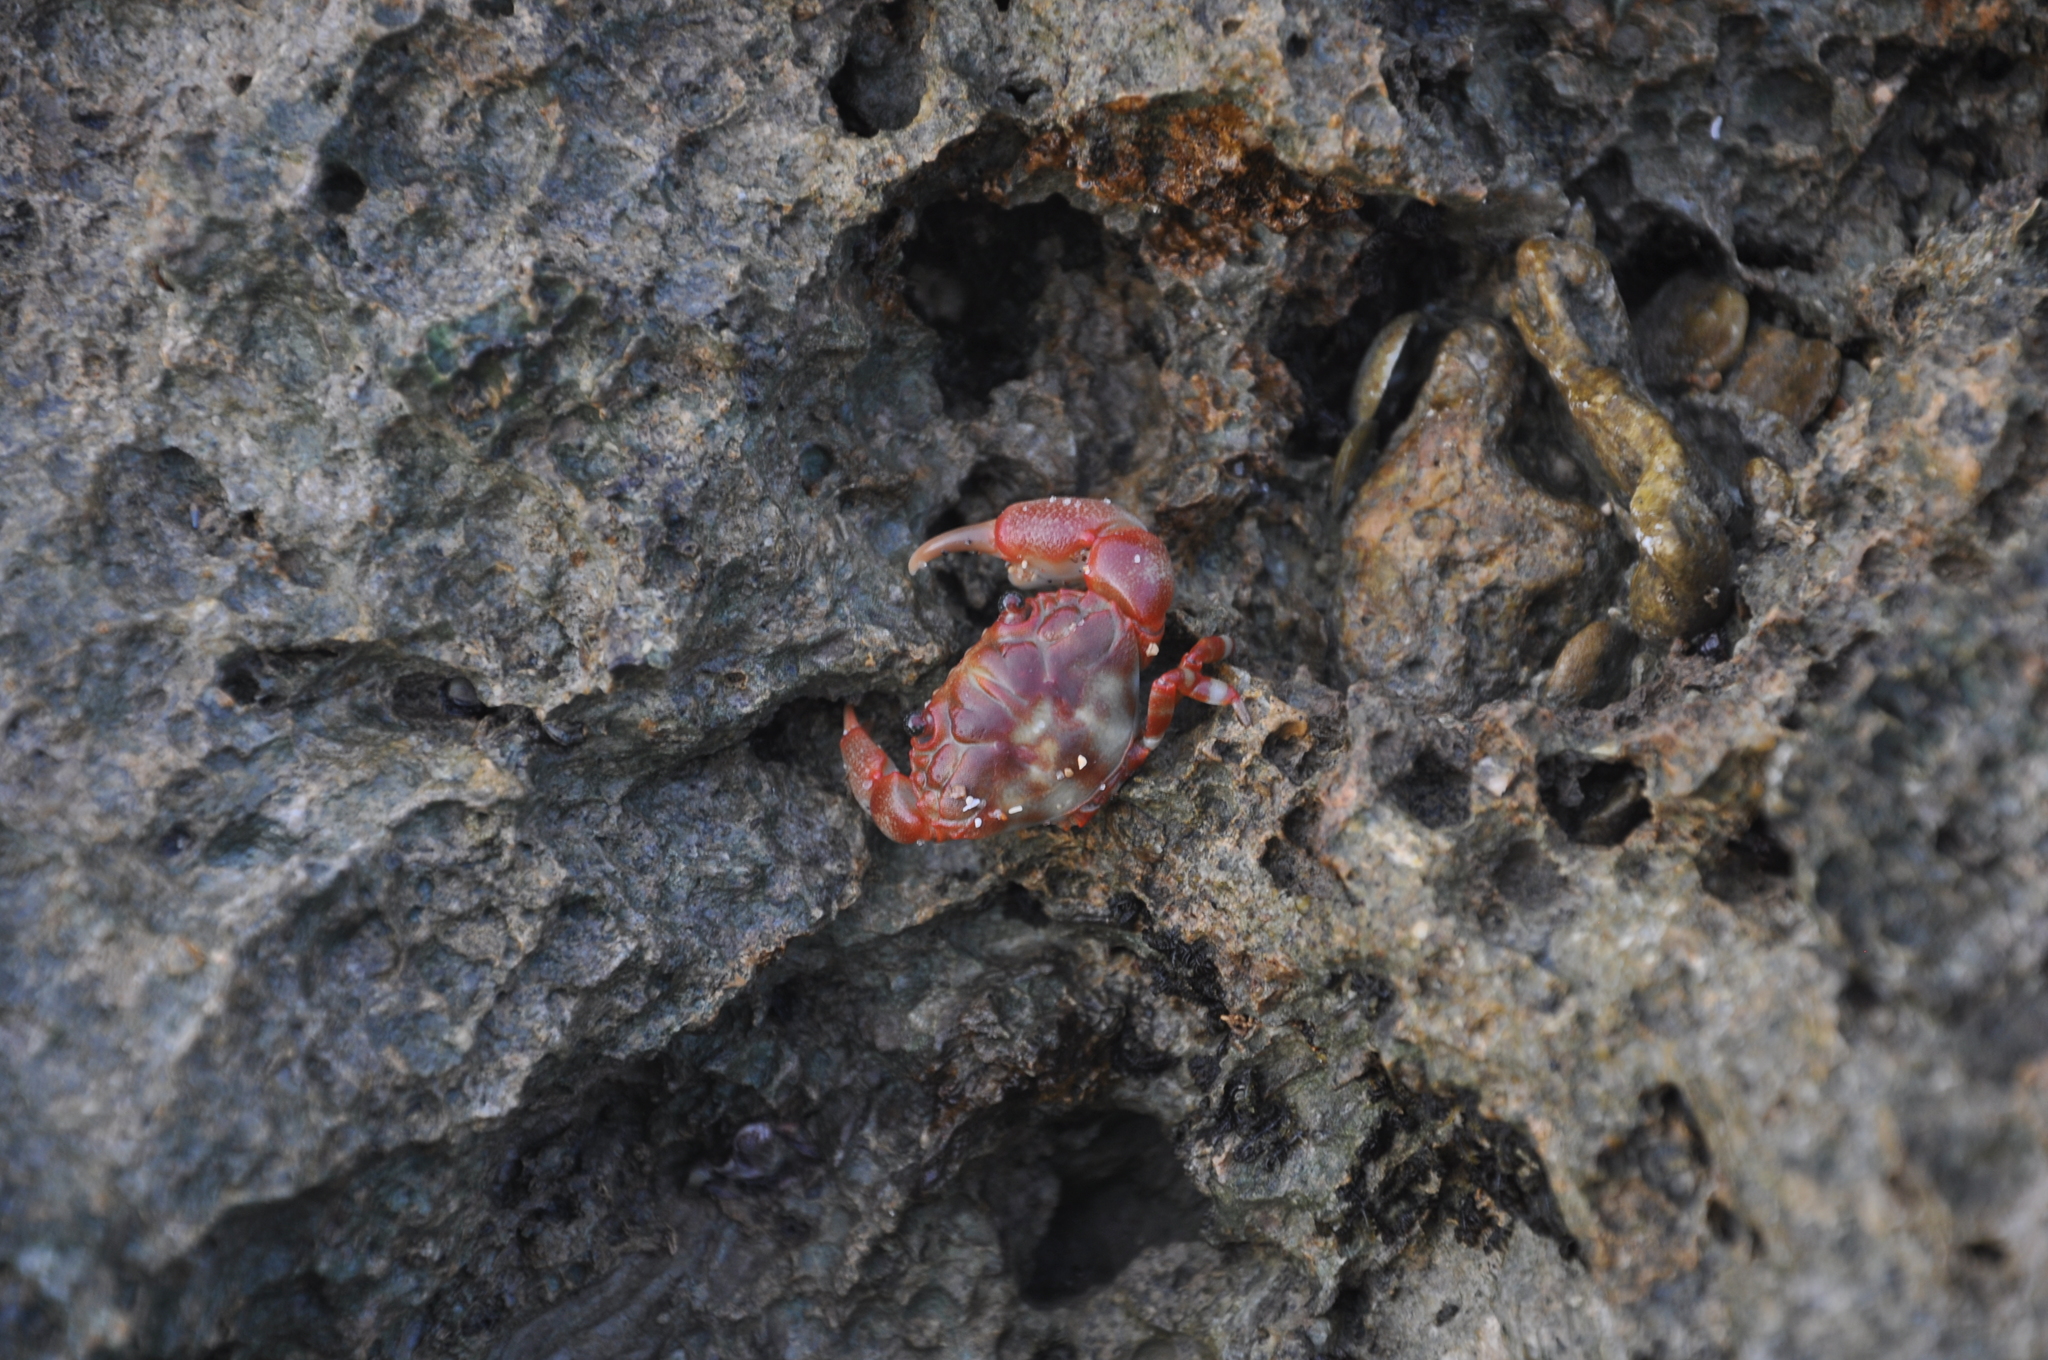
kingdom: Animalia
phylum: Arthropoda
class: Malacostraca
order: Decapoda
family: Oziidae
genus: Lydia
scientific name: Lydia annulipes
